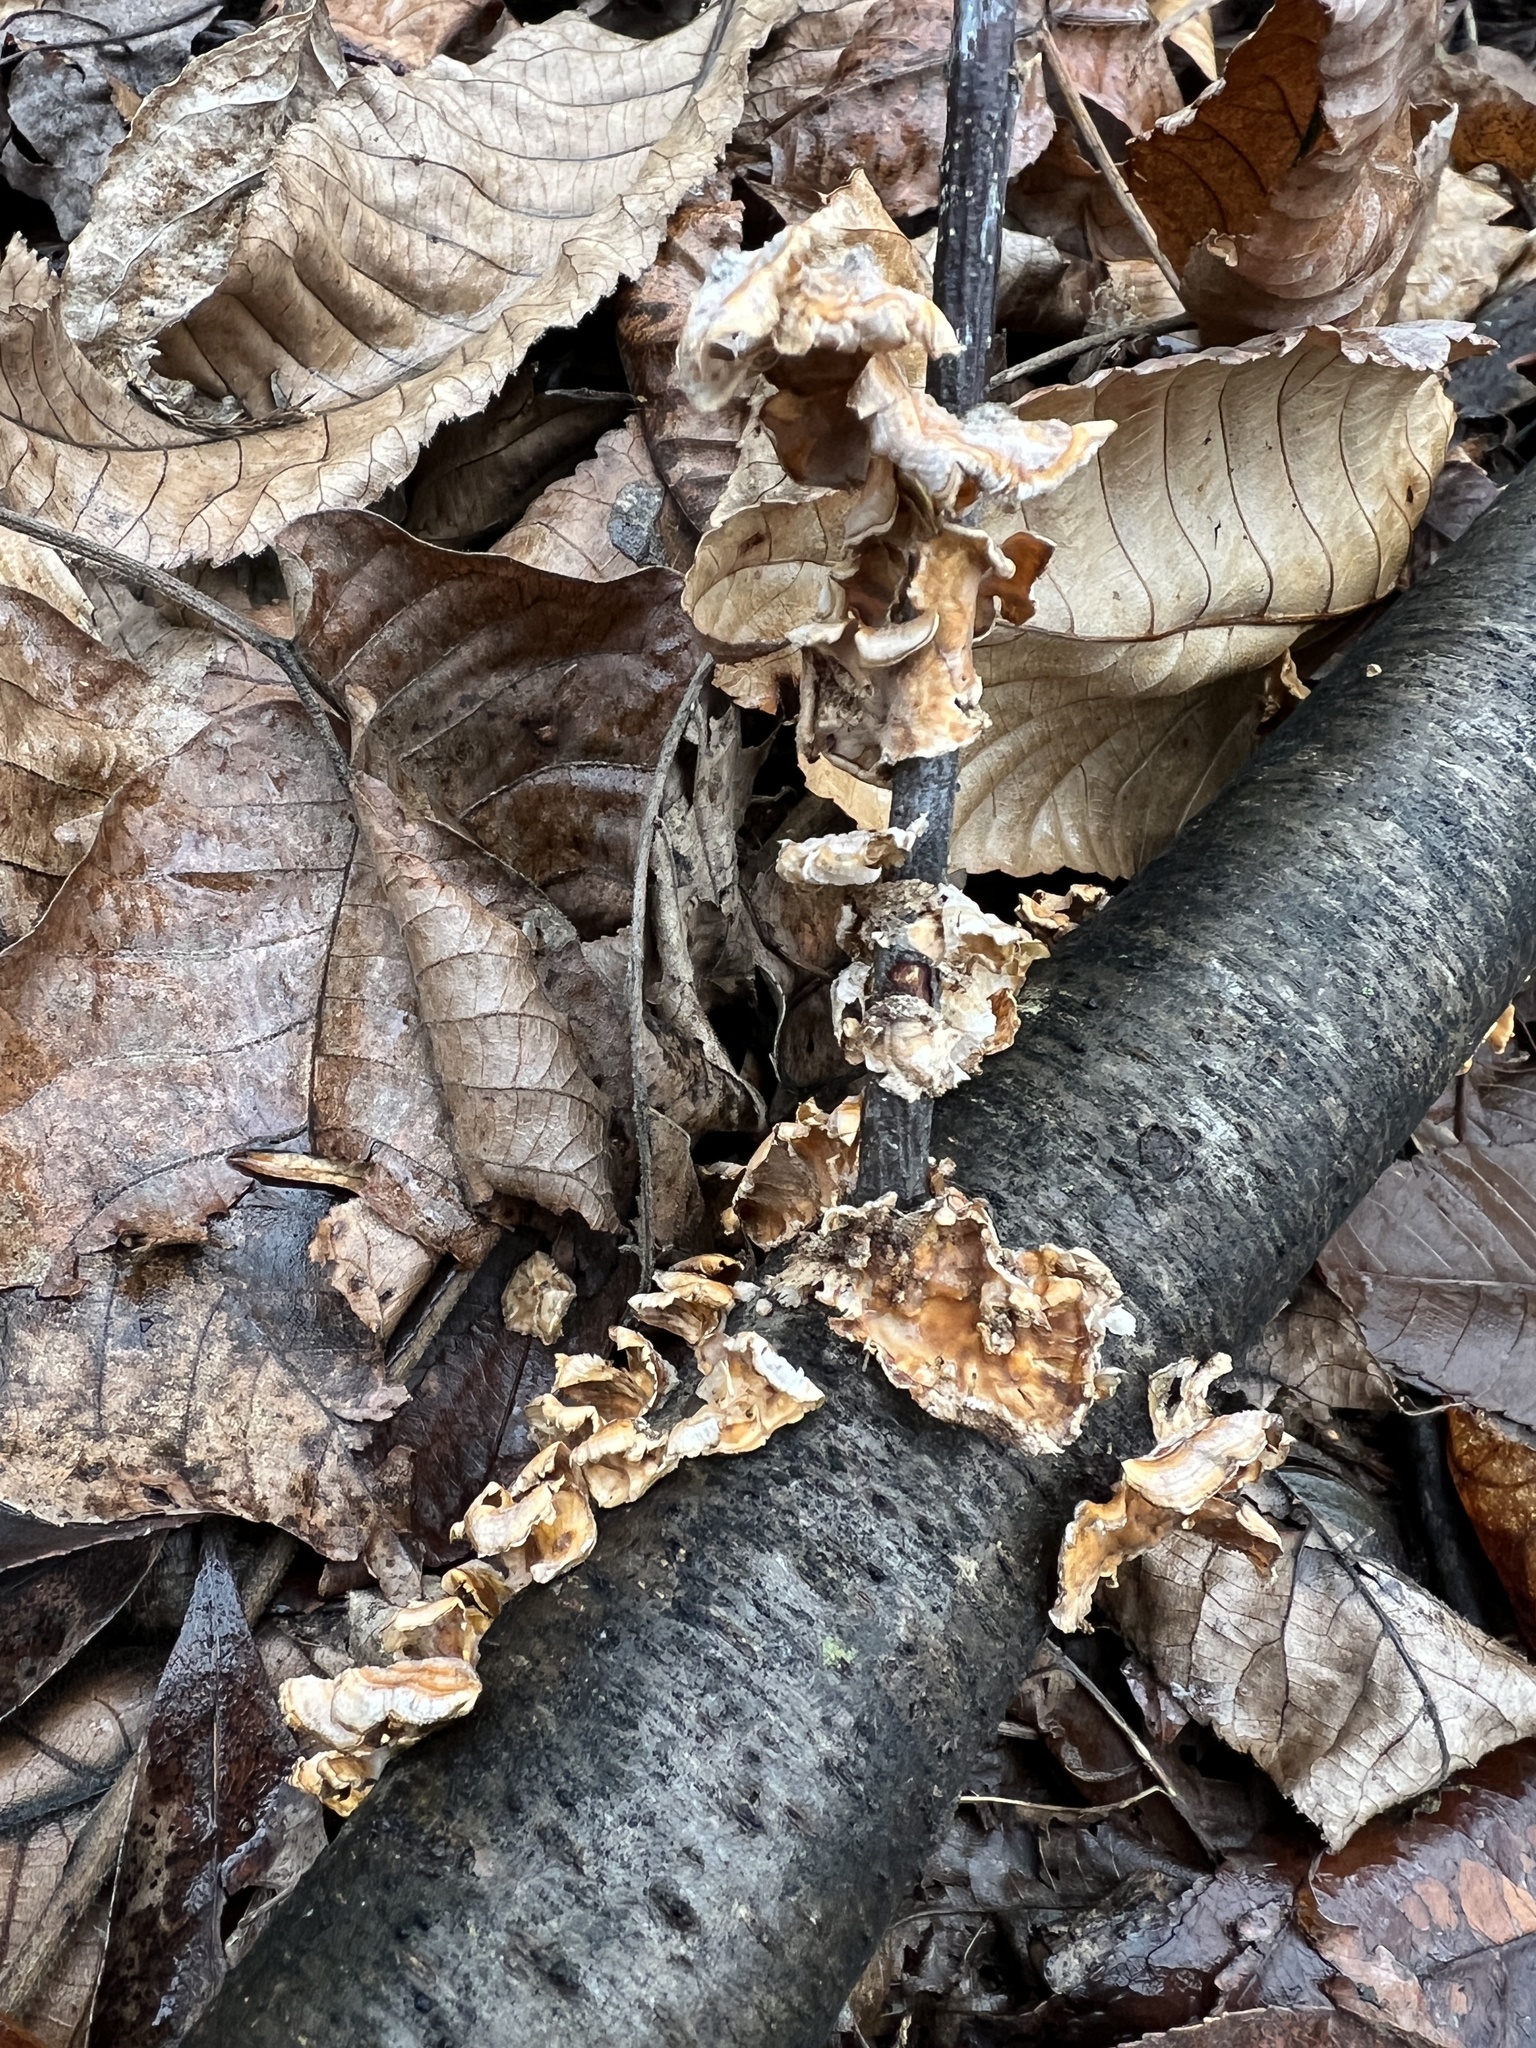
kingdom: Fungi
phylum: Basidiomycota
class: Agaricomycetes
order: Russulales
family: Stereaceae
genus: Stereum
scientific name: Stereum complicatum
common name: Crowded parchment
